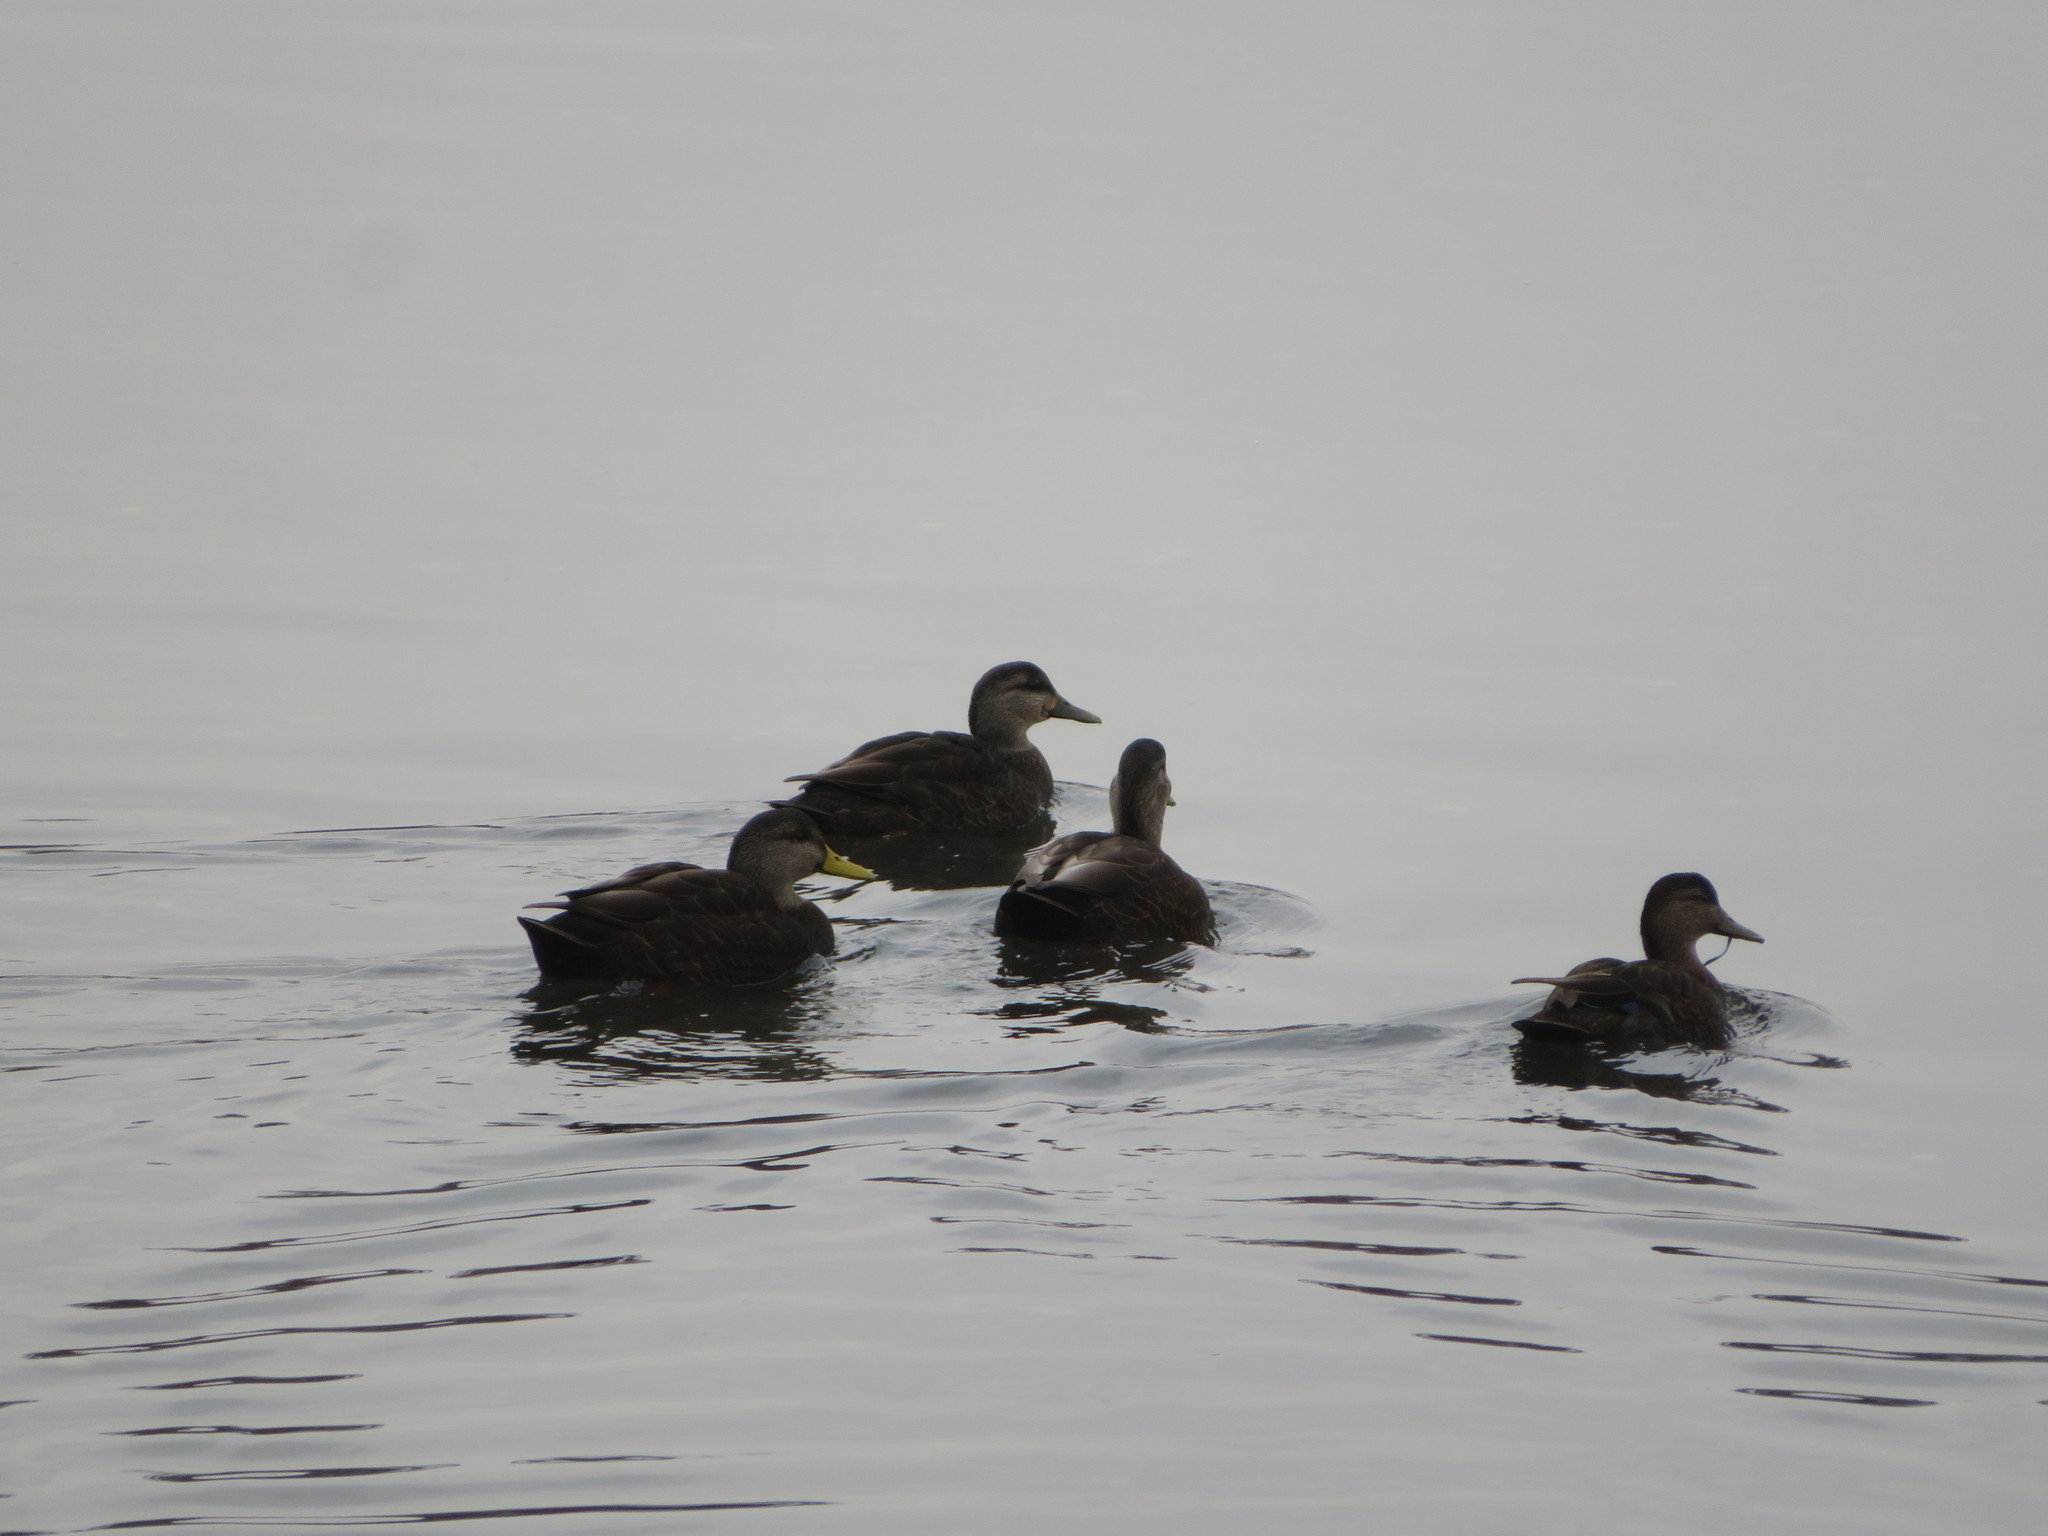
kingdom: Animalia
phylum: Chordata
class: Aves
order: Anseriformes
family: Anatidae
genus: Anas
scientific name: Anas rubripes
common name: American black duck
